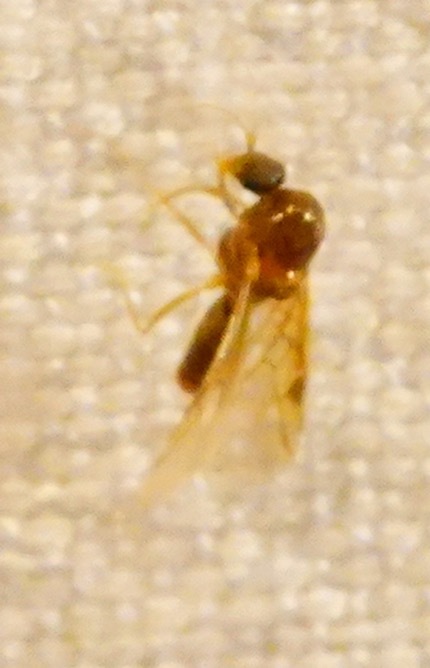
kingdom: Animalia
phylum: Arthropoda
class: Insecta
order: Hymenoptera
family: Formicidae
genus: Linepithema
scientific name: Linepithema humile
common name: Argentine ant
